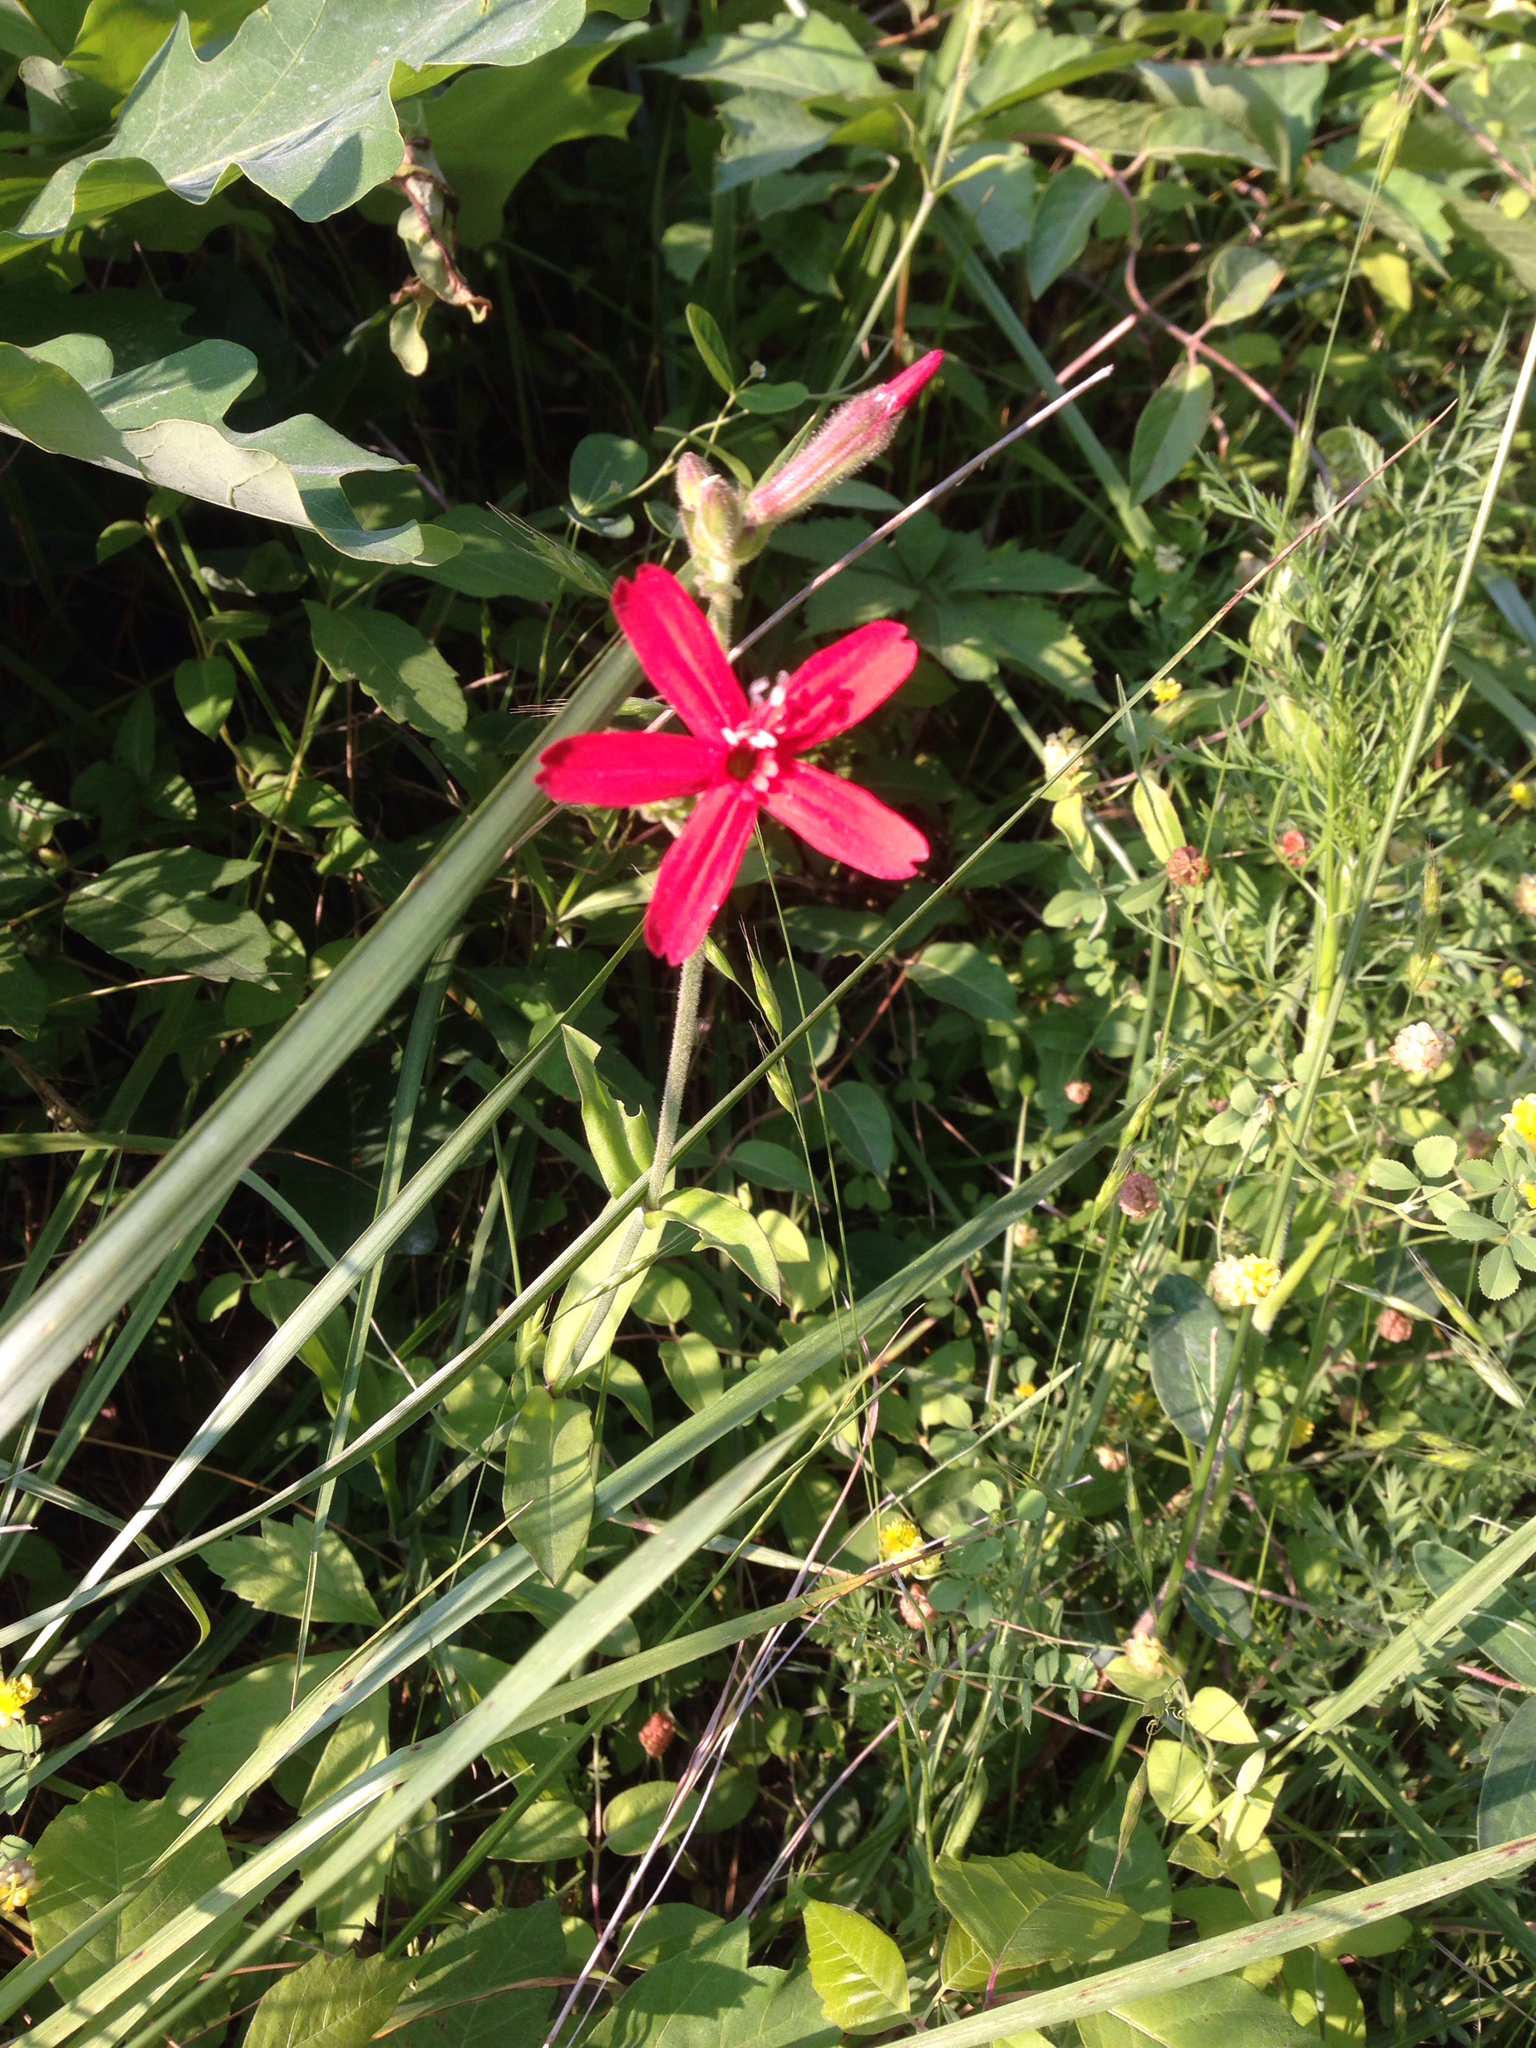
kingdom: Plantae
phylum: Tracheophyta
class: Magnoliopsida
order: Caryophyllales
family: Caryophyllaceae
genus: Silene
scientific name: Silene virginica
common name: Fire-pink
